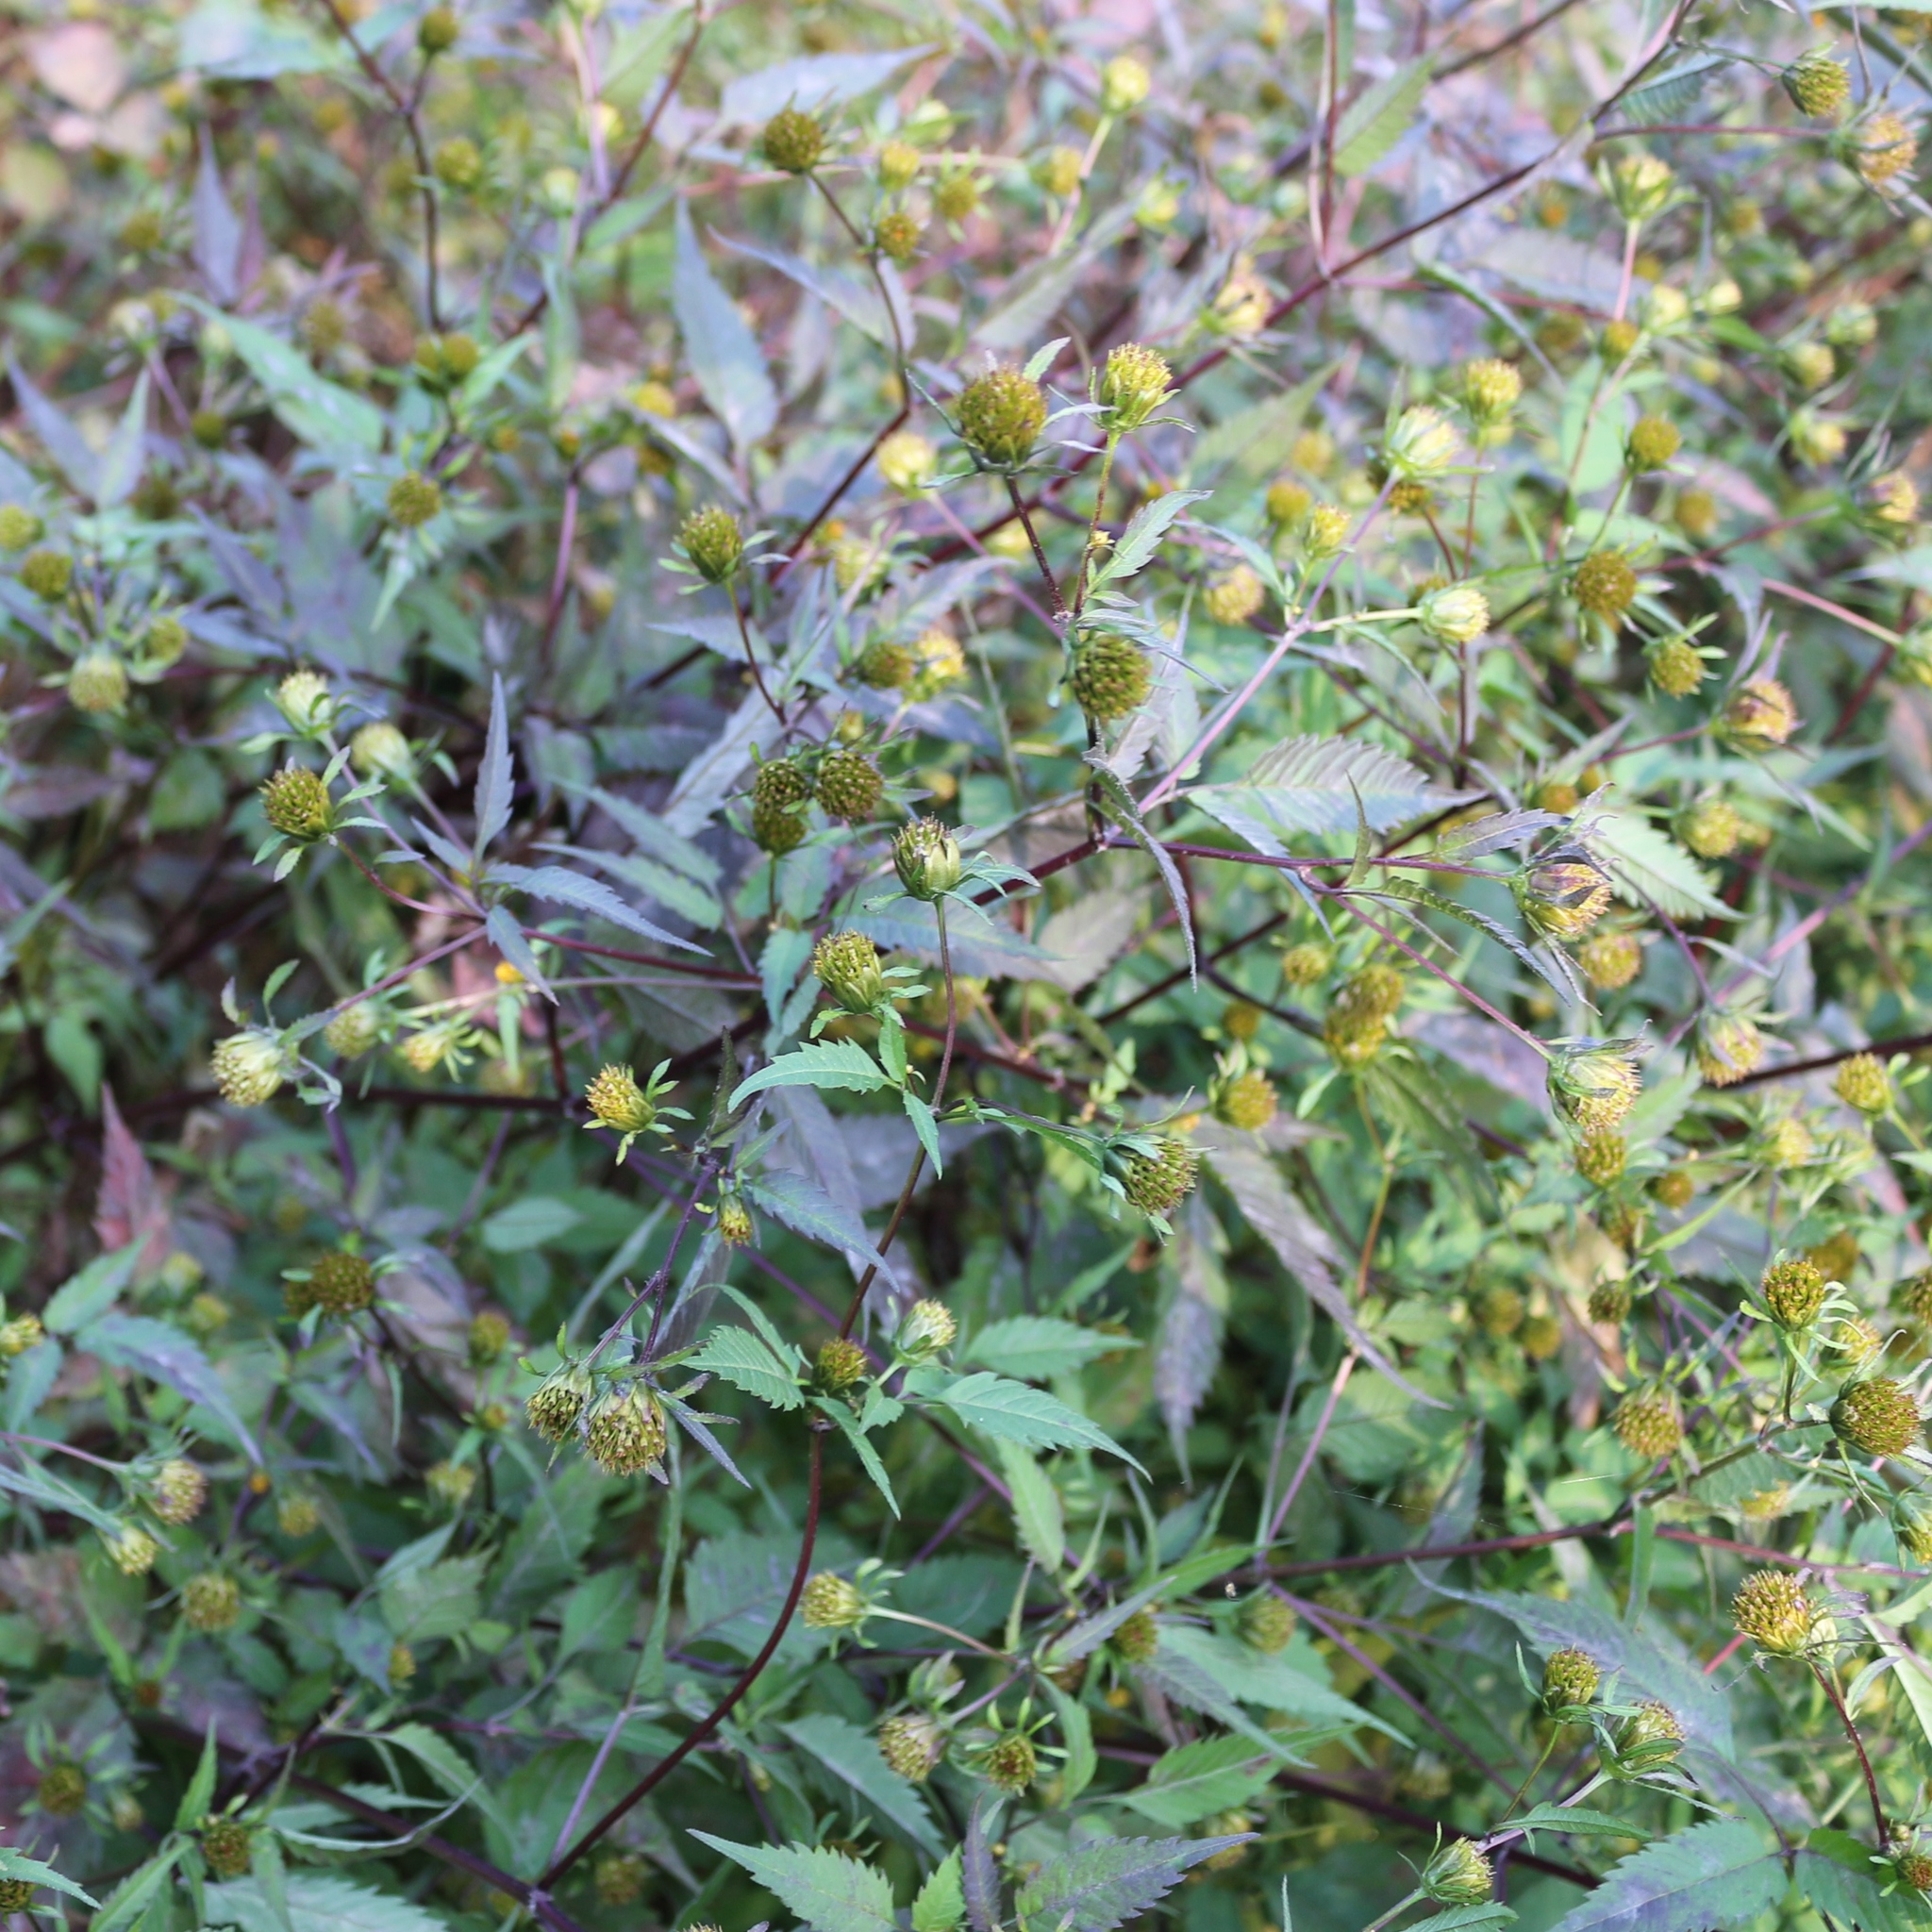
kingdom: Plantae
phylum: Tracheophyta
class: Magnoliopsida
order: Asterales
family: Asteraceae
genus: Bidens
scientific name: Bidens frondosa
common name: Beggarticks
